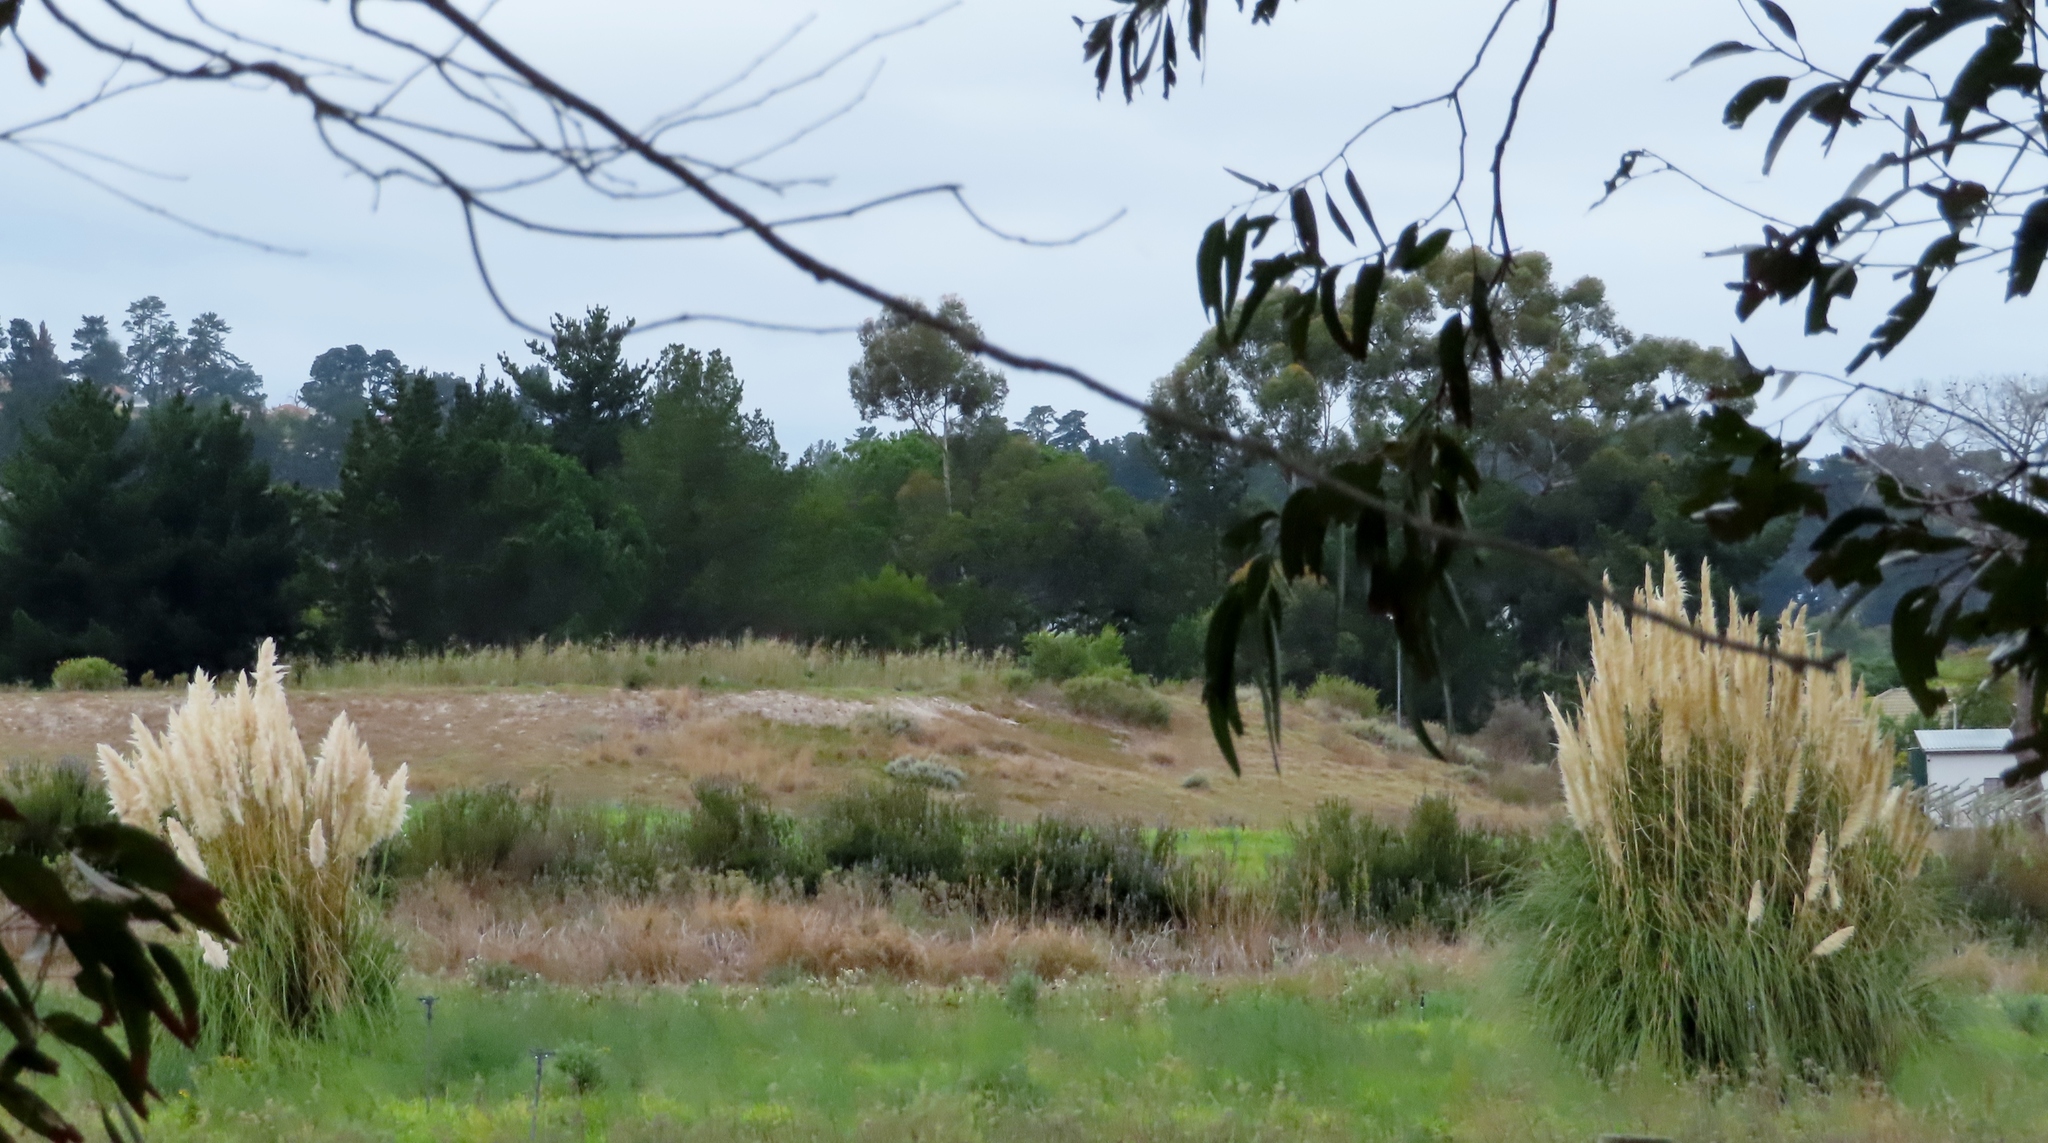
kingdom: Plantae
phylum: Tracheophyta
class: Liliopsida
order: Poales
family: Poaceae
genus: Cortaderia
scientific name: Cortaderia selloana
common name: Uruguayan pampas grass
